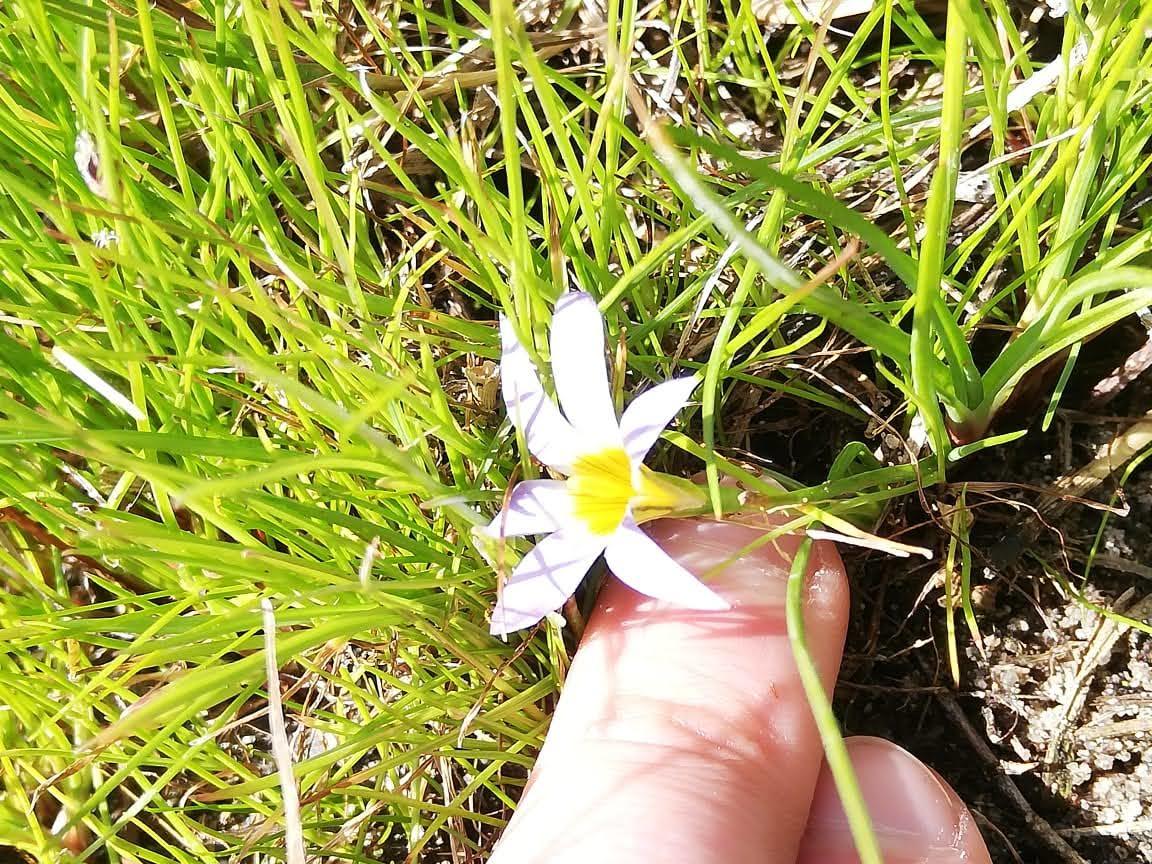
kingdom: Plantae
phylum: Tracheophyta
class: Liliopsida
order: Asparagales
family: Iridaceae
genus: Romulea
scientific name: Romulea tabularis
